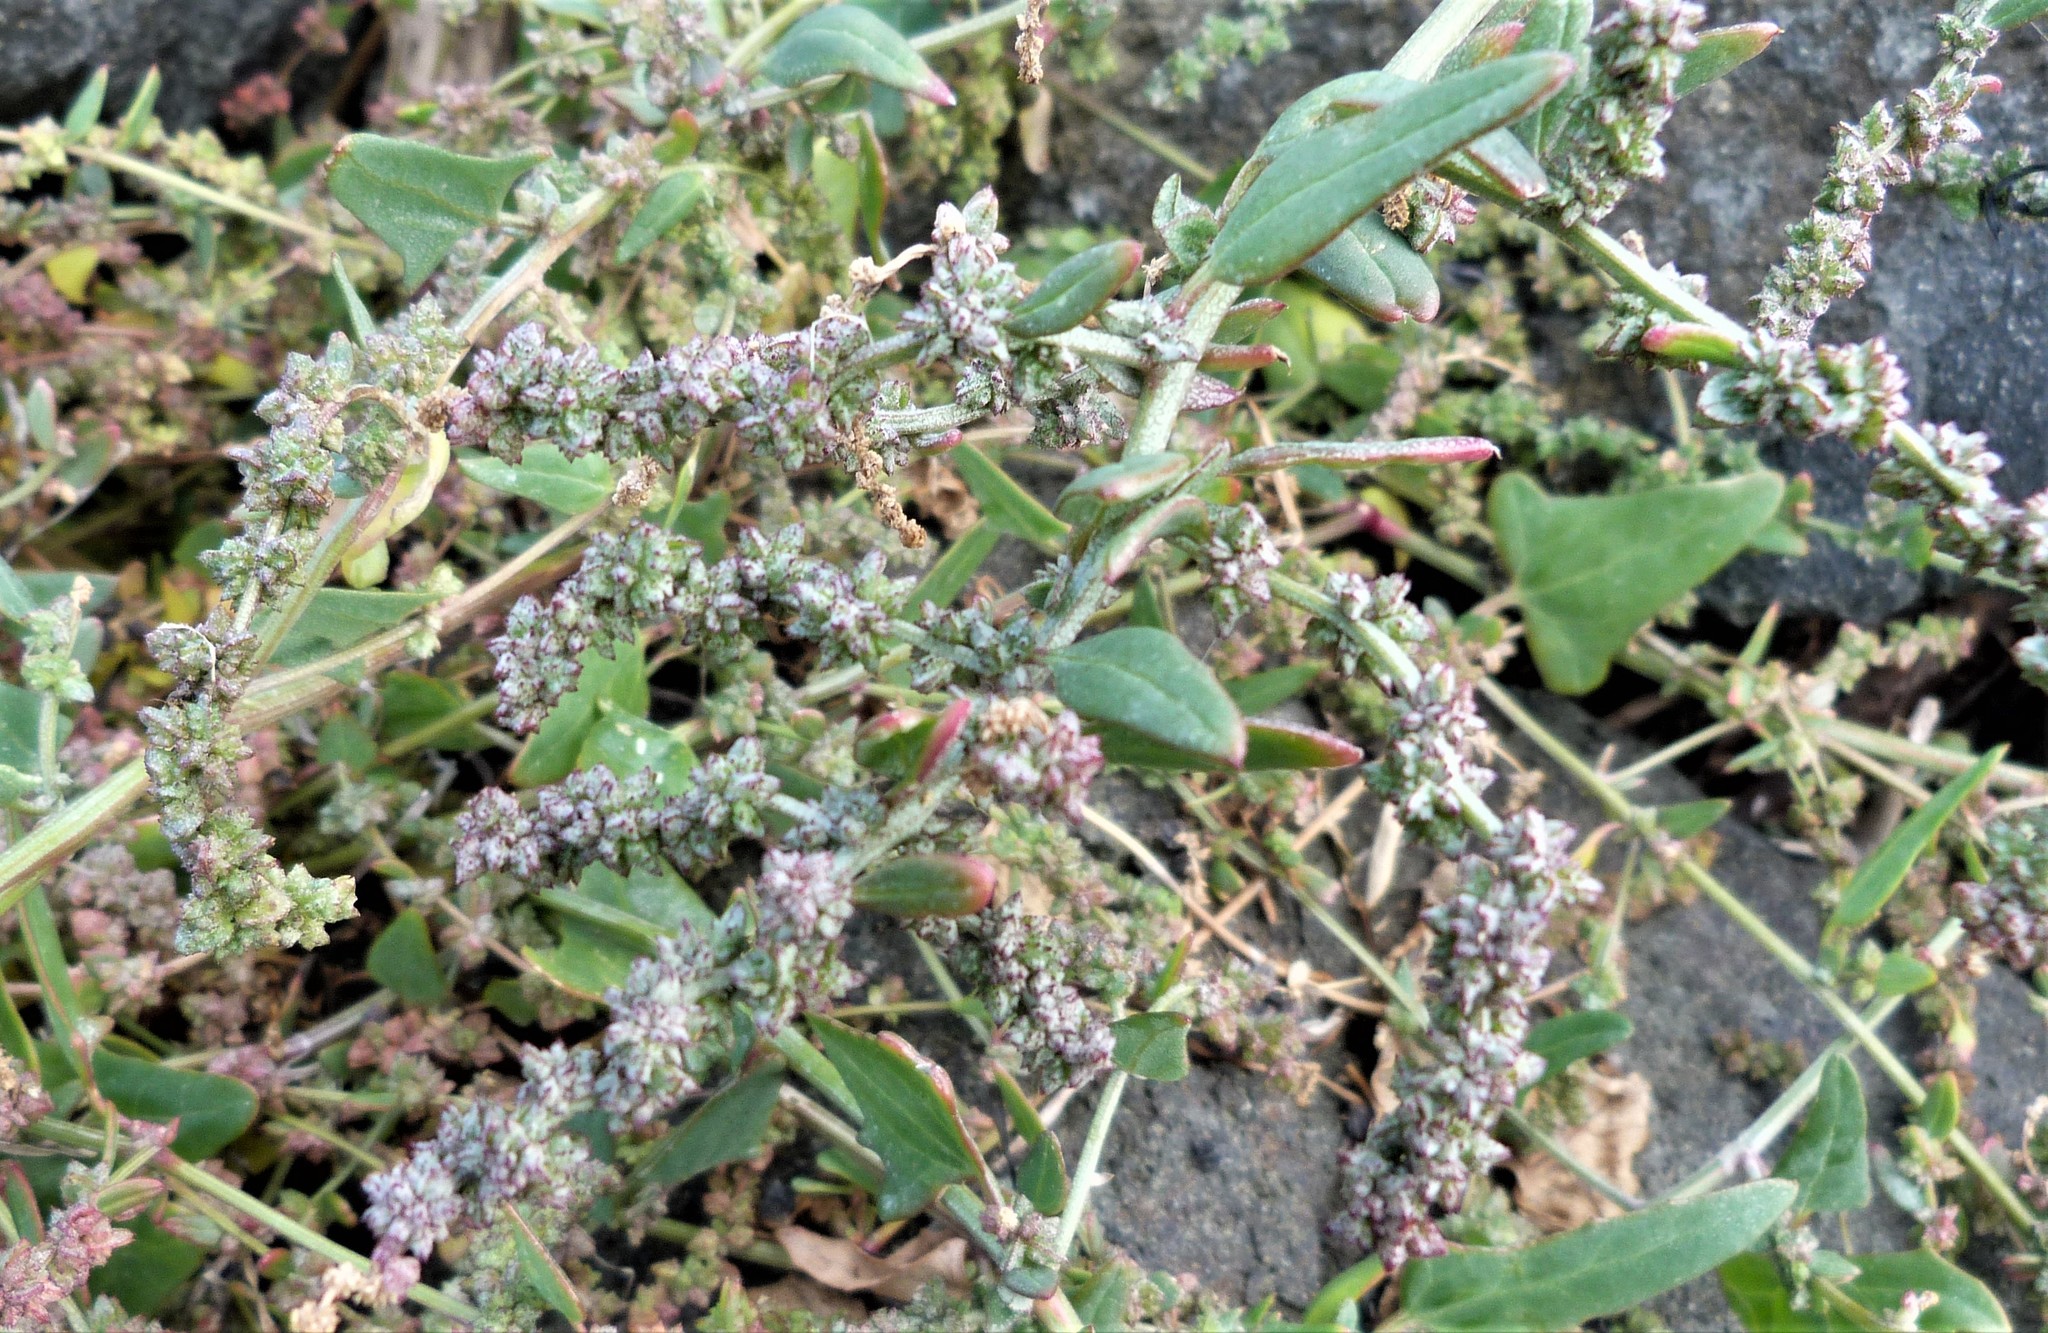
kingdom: Plantae
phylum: Tracheophyta
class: Magnoliopsida
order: Caryophyllales
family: Amaranthaceae
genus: Atriplex
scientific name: Atriplex prostrata
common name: Spear-leaved orache
